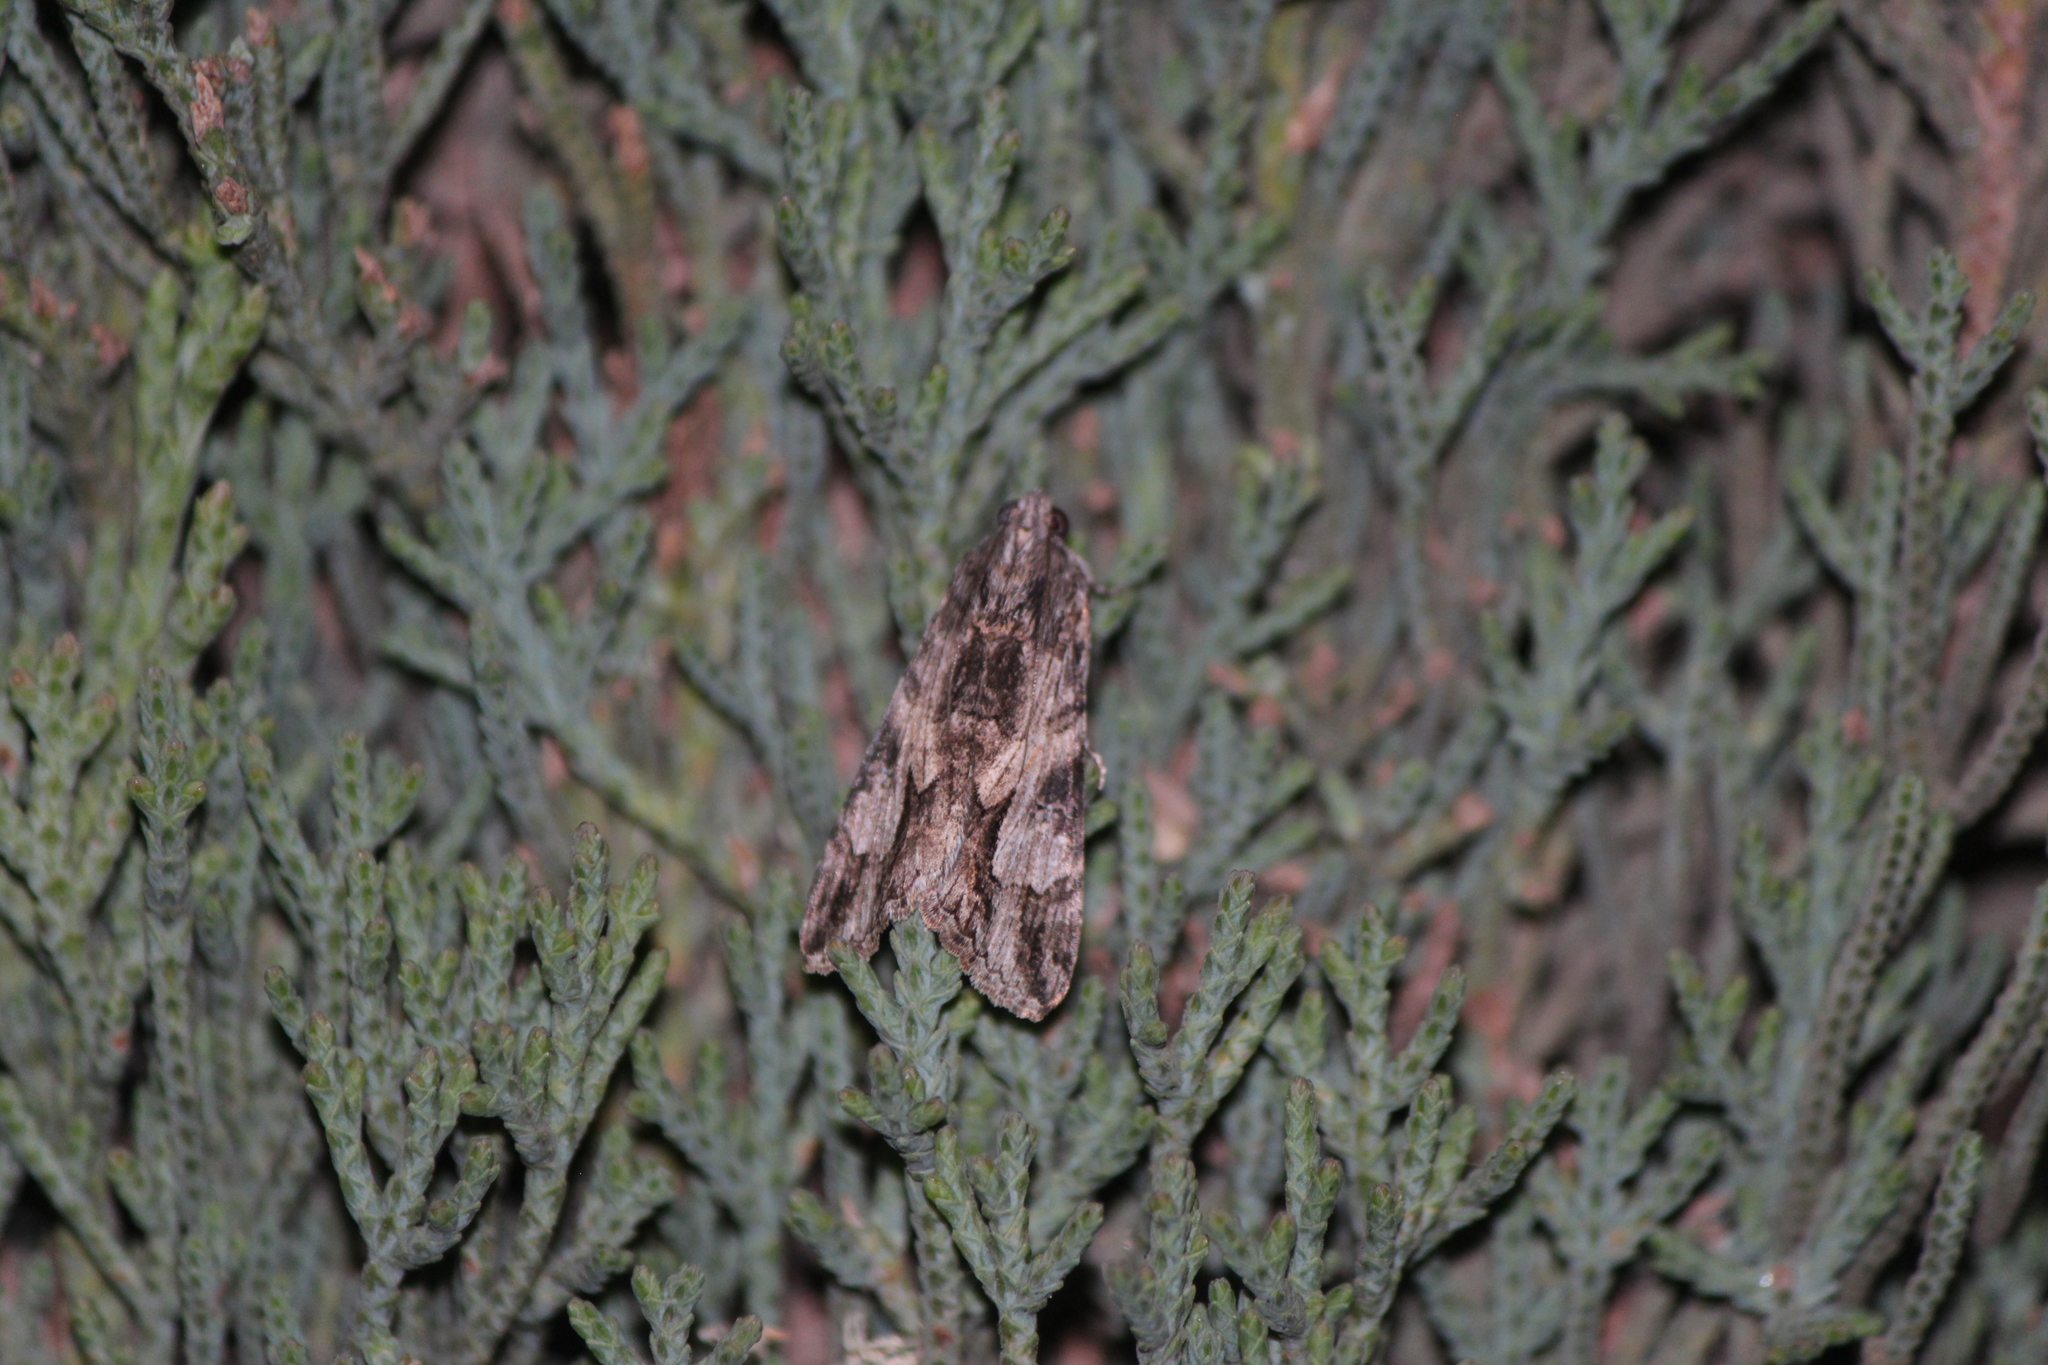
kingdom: Animalia
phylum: Arthropoda
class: Insecta
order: Lepidoptera
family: Erebidae
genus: Melipotis
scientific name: Melipotis jucunda
